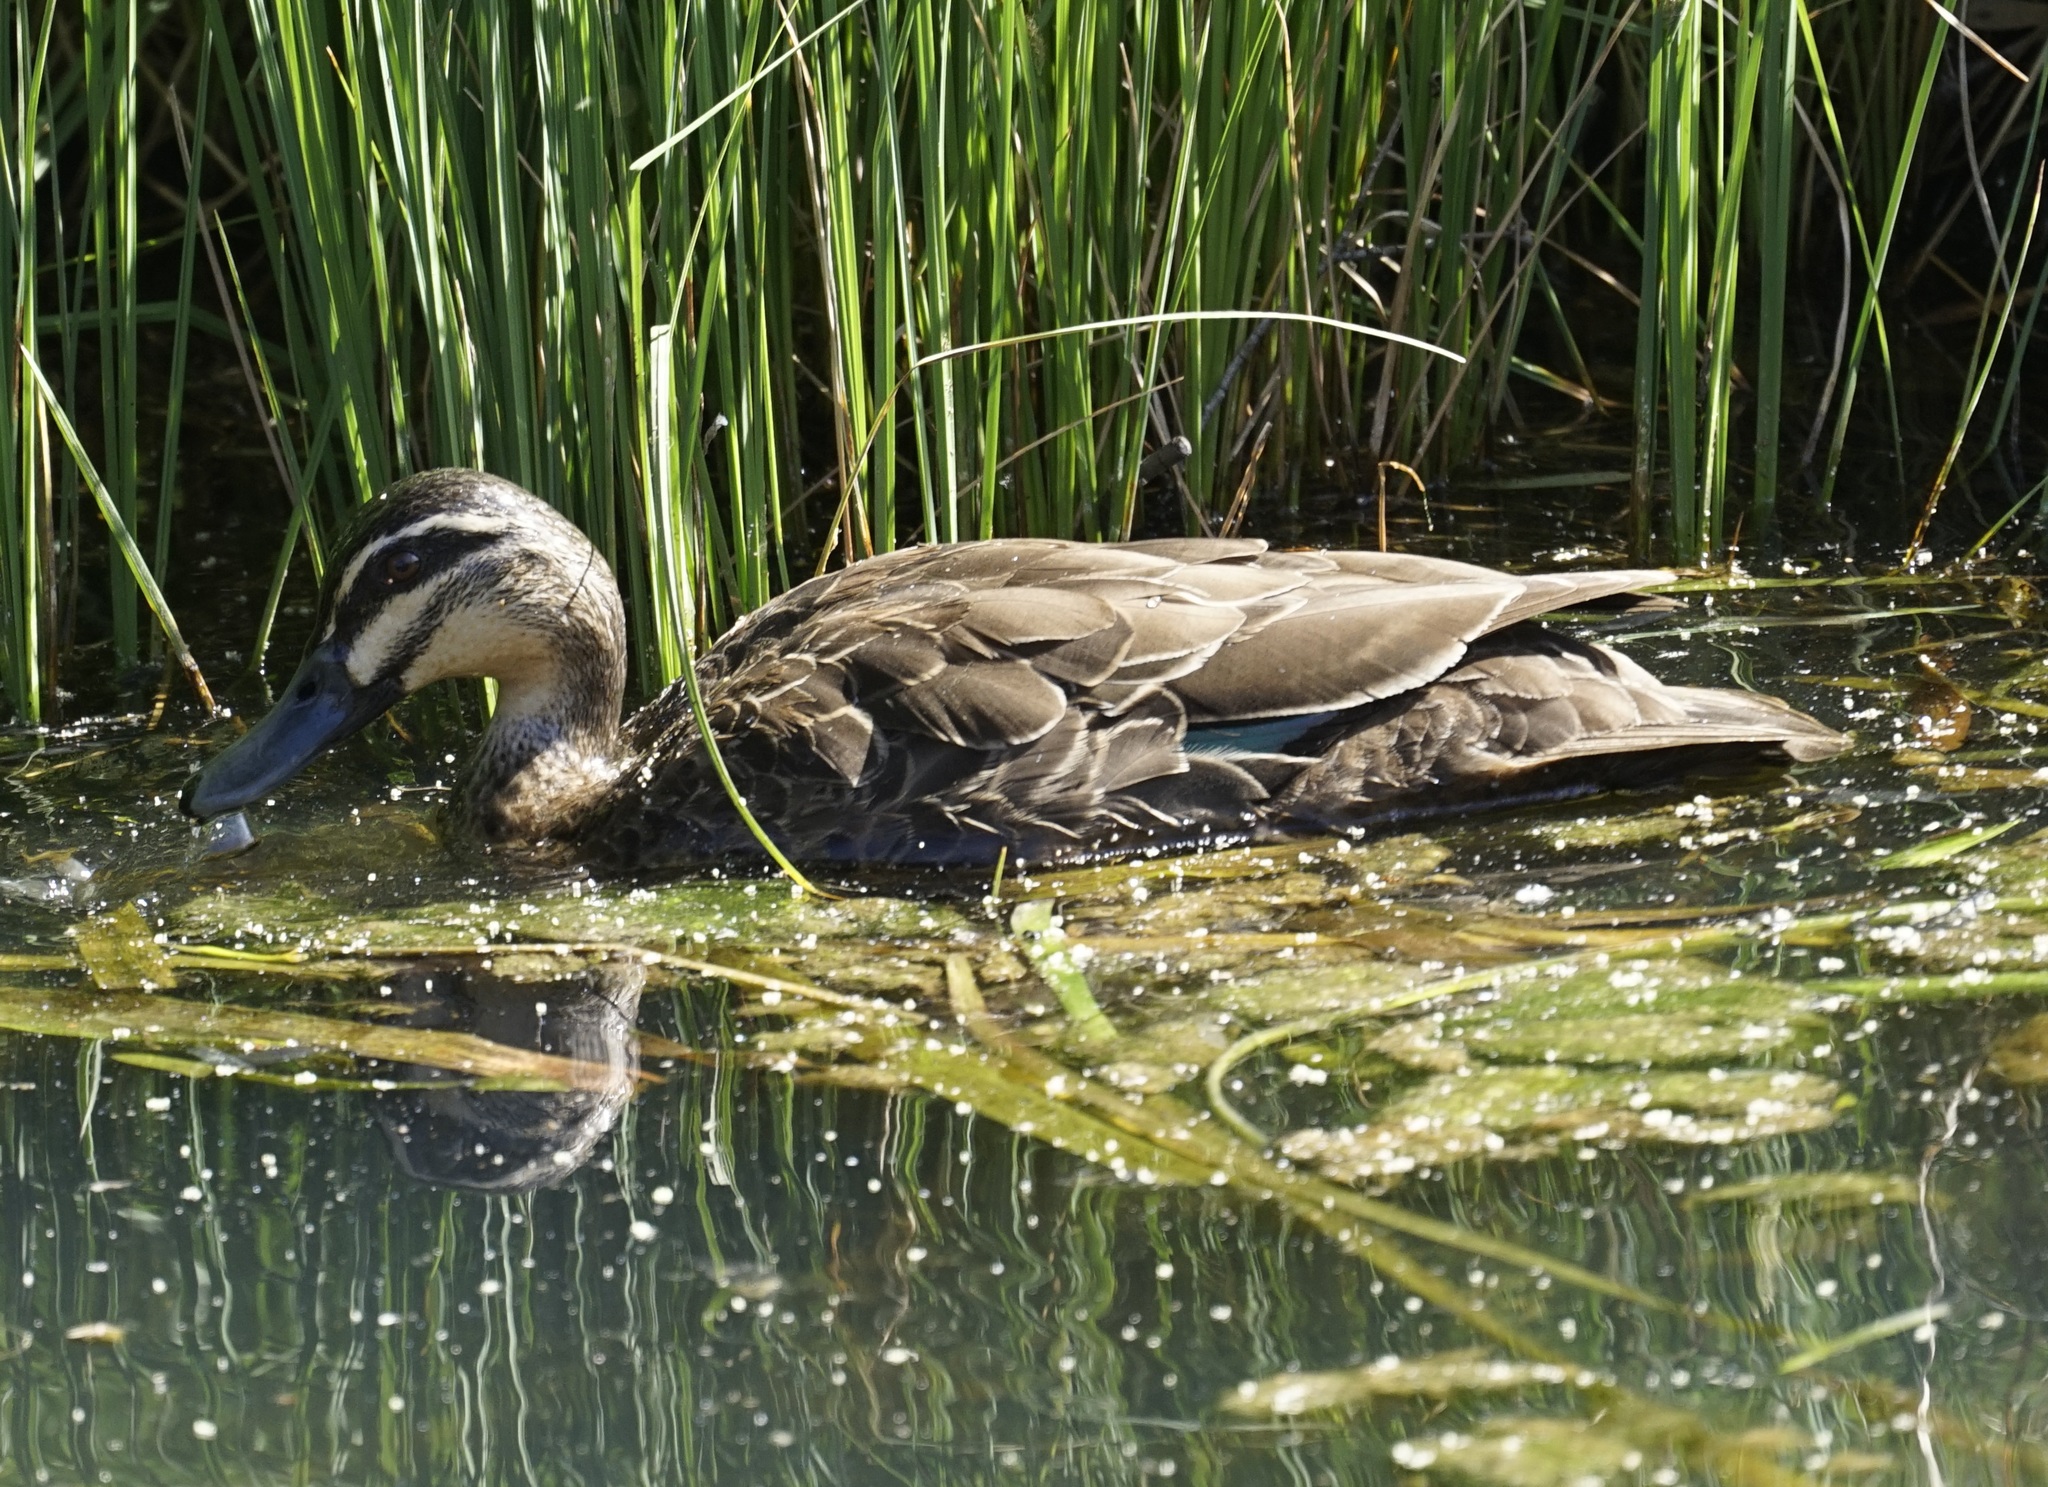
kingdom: Animalia
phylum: Chordata
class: Aves
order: Anseriformes
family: Anatidae
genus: Anas
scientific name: Anas superciliosa
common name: Pacific black duck
